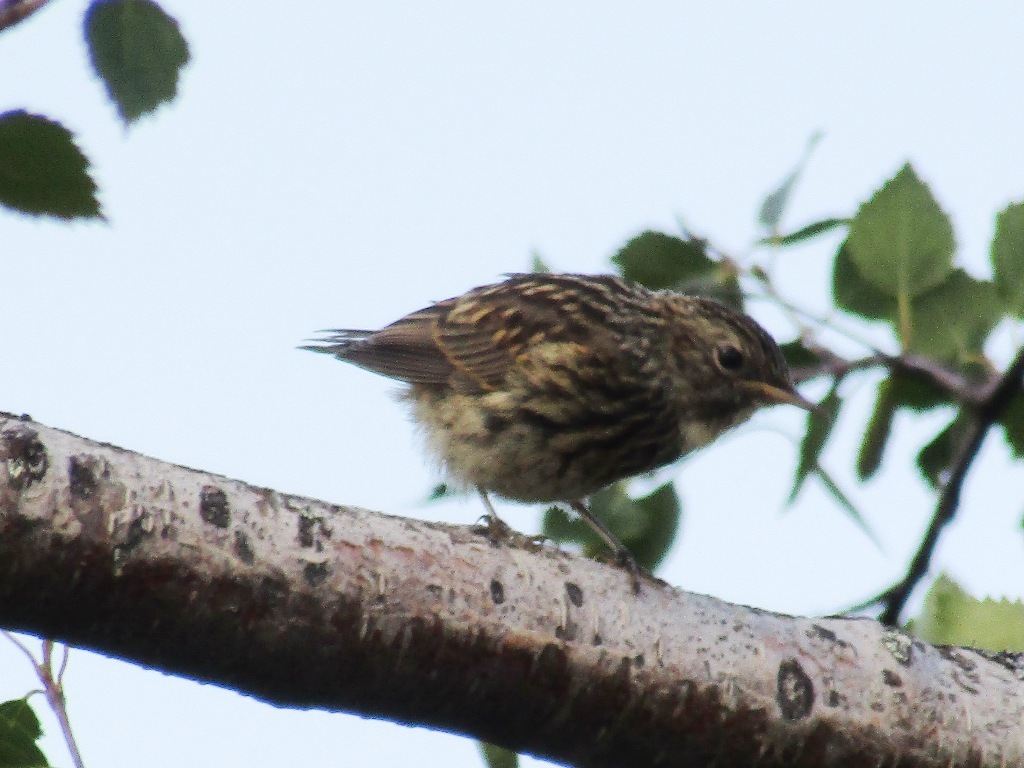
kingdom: Animalia
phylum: Chordata
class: Aves
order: Passeriformes
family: Muscicapidae
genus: Luscinia
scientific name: Luscinia svecica
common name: Bluethroat
